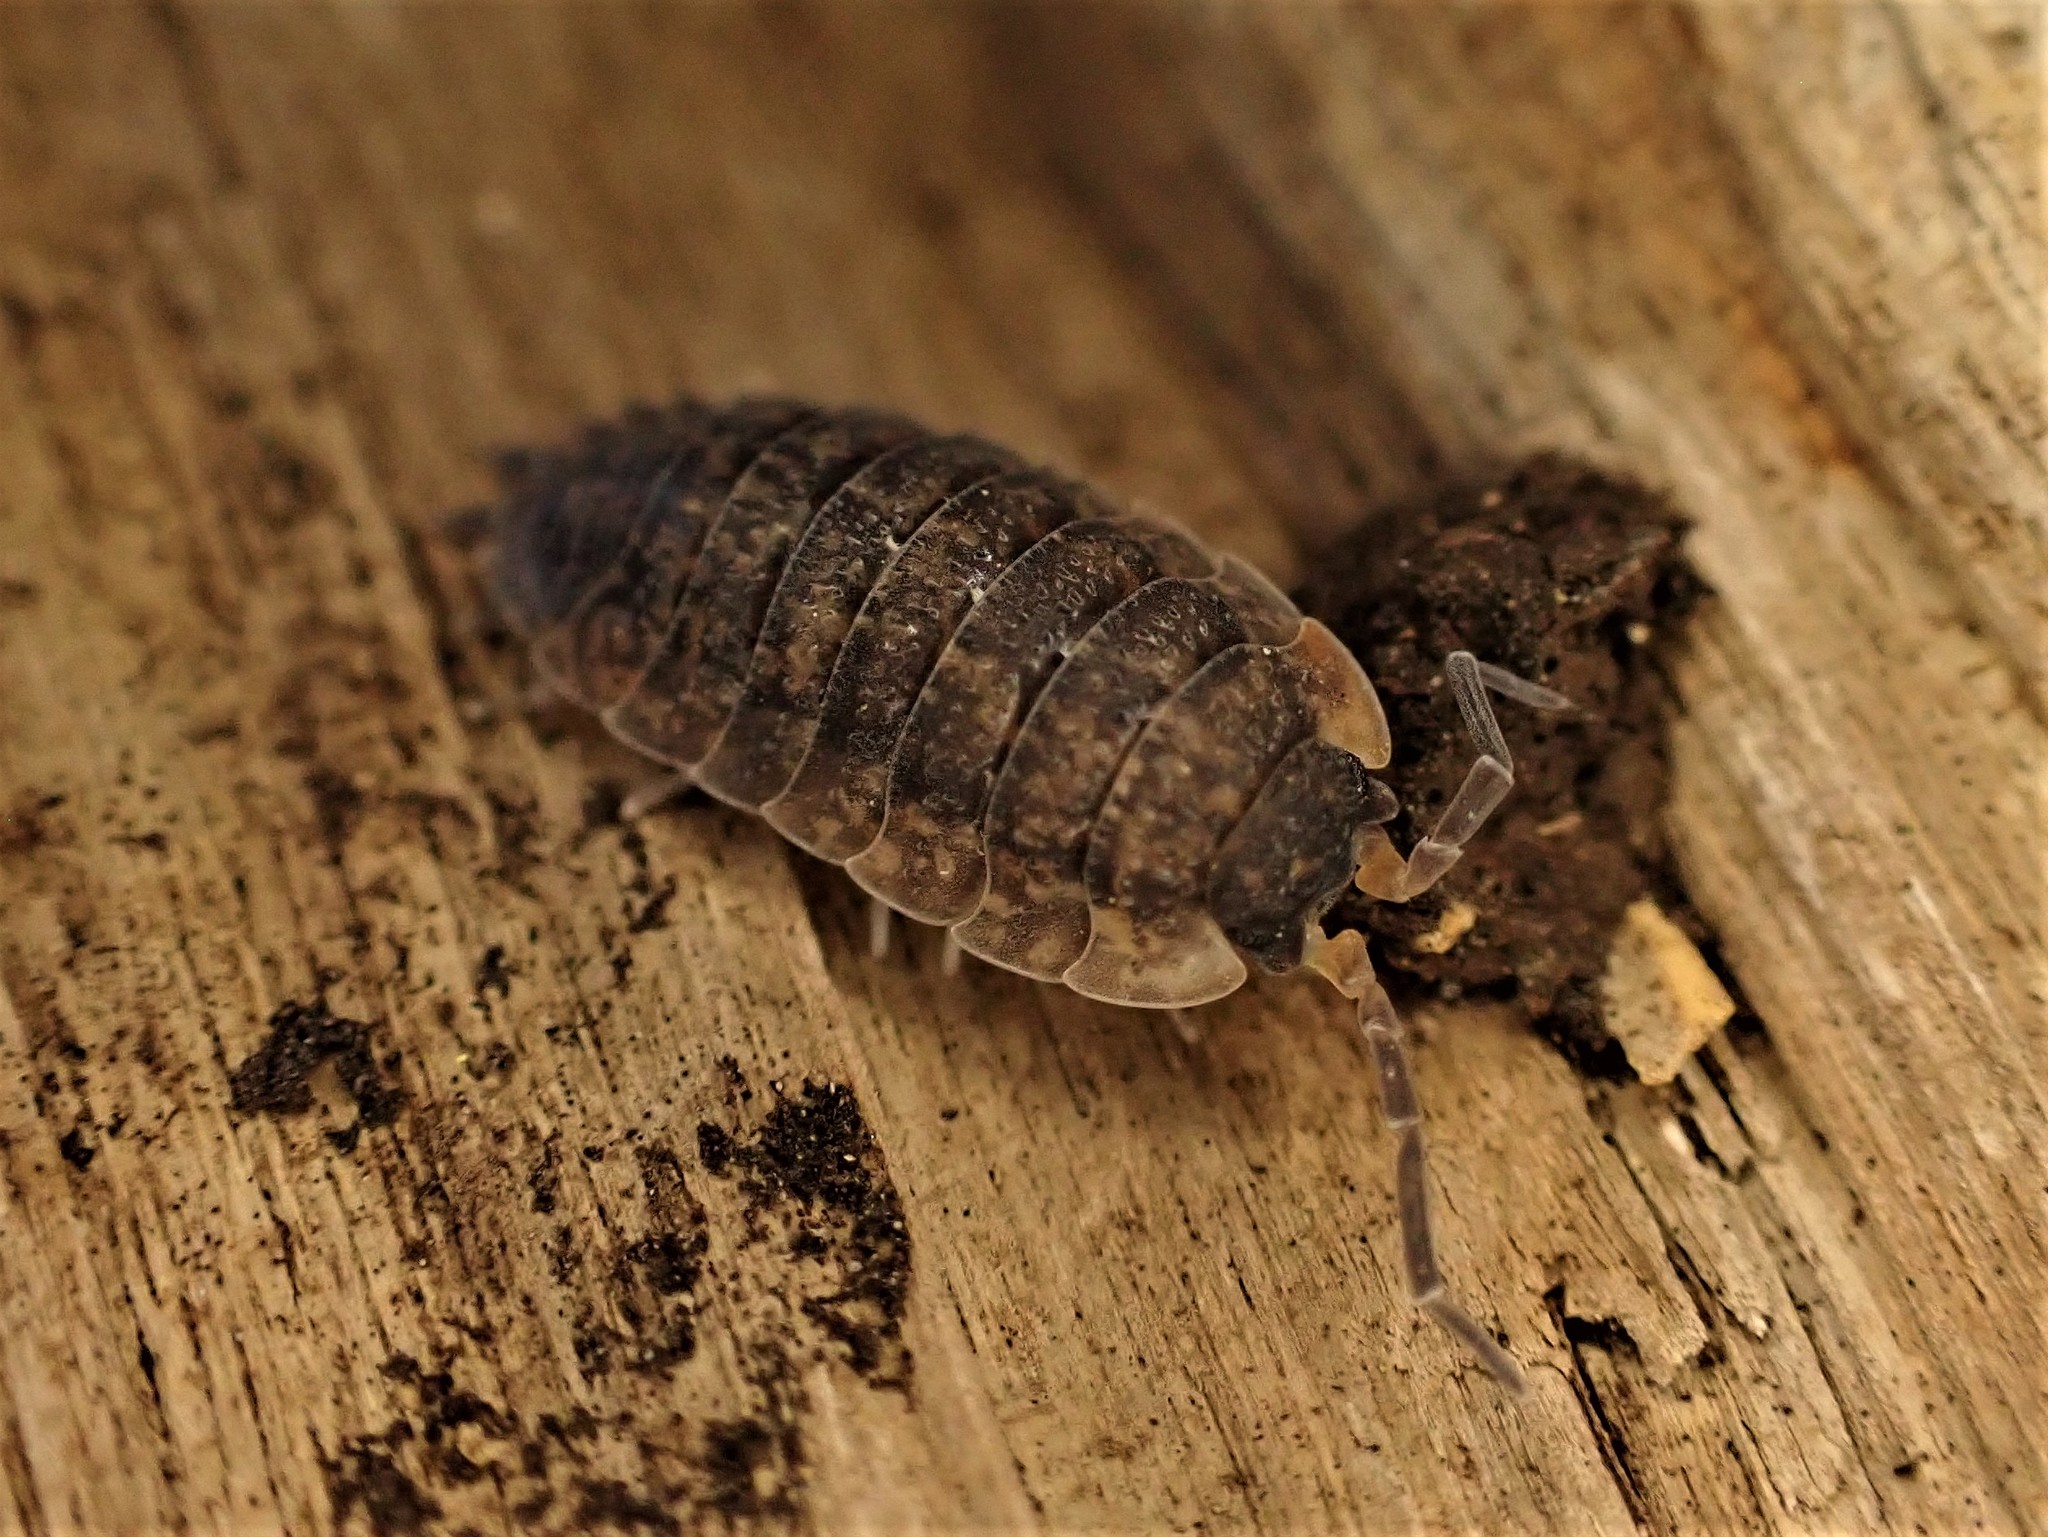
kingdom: Animalia
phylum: Arthropoda
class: Malacostraca
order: Isopoda
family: Porcellionidae
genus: Porcellio
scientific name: Porcellio scaber
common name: Common rough woodlouse
